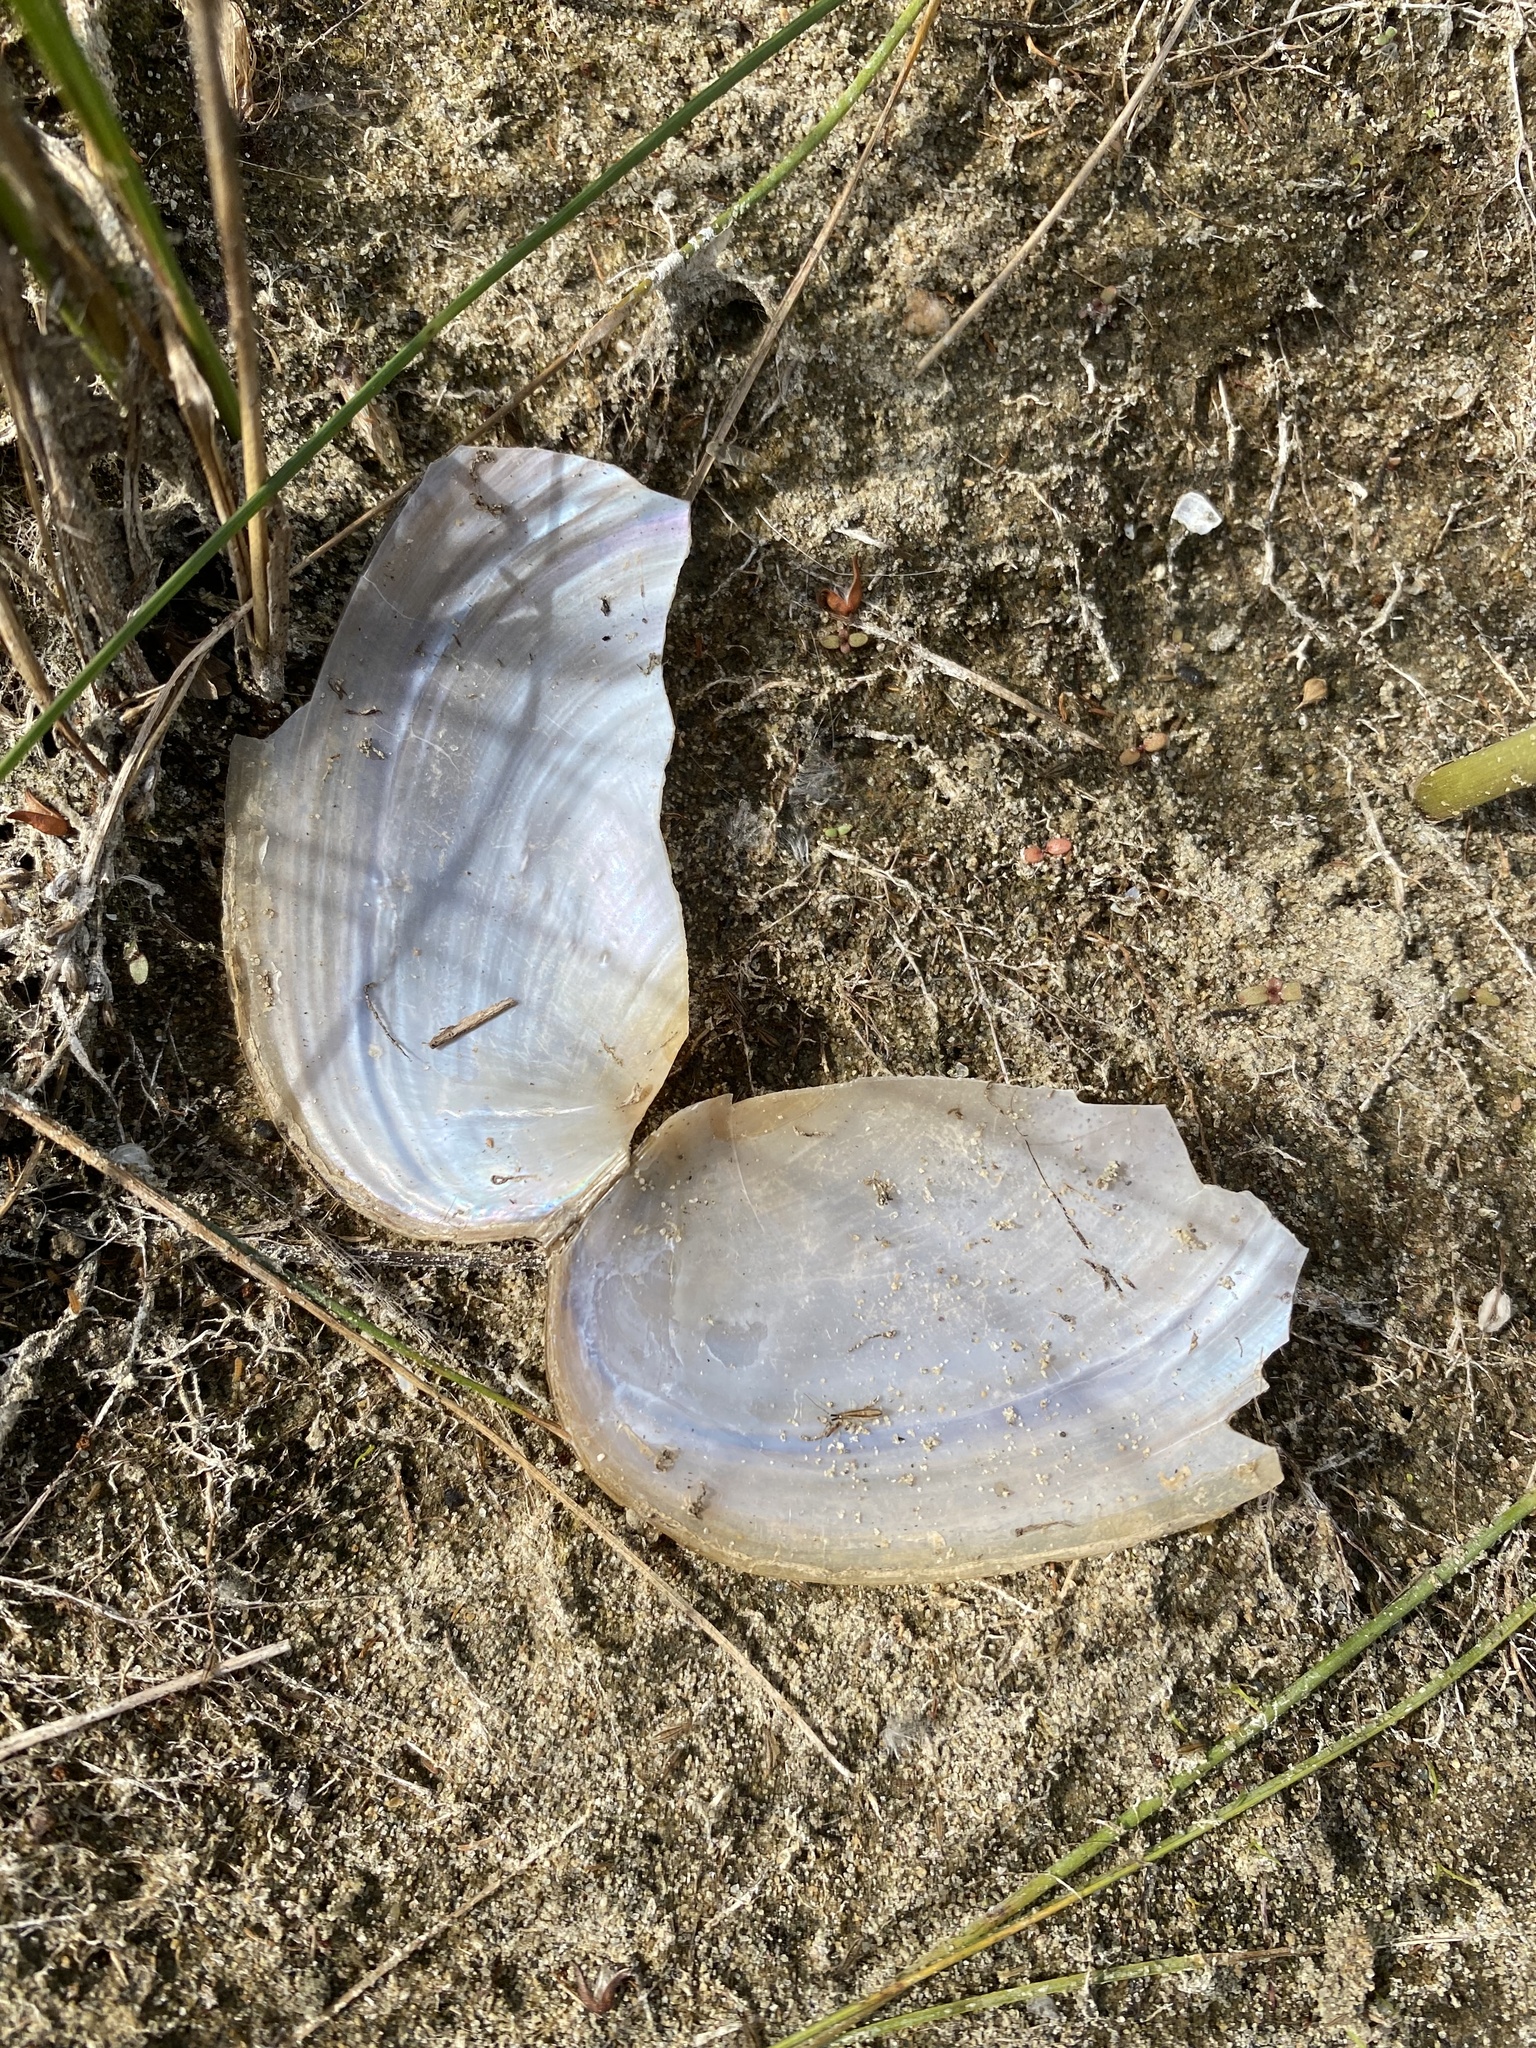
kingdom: Animalia
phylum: Mollusca
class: Bivalvia
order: Unionida
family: Unionidae
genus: Anodonta
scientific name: Anodonta
